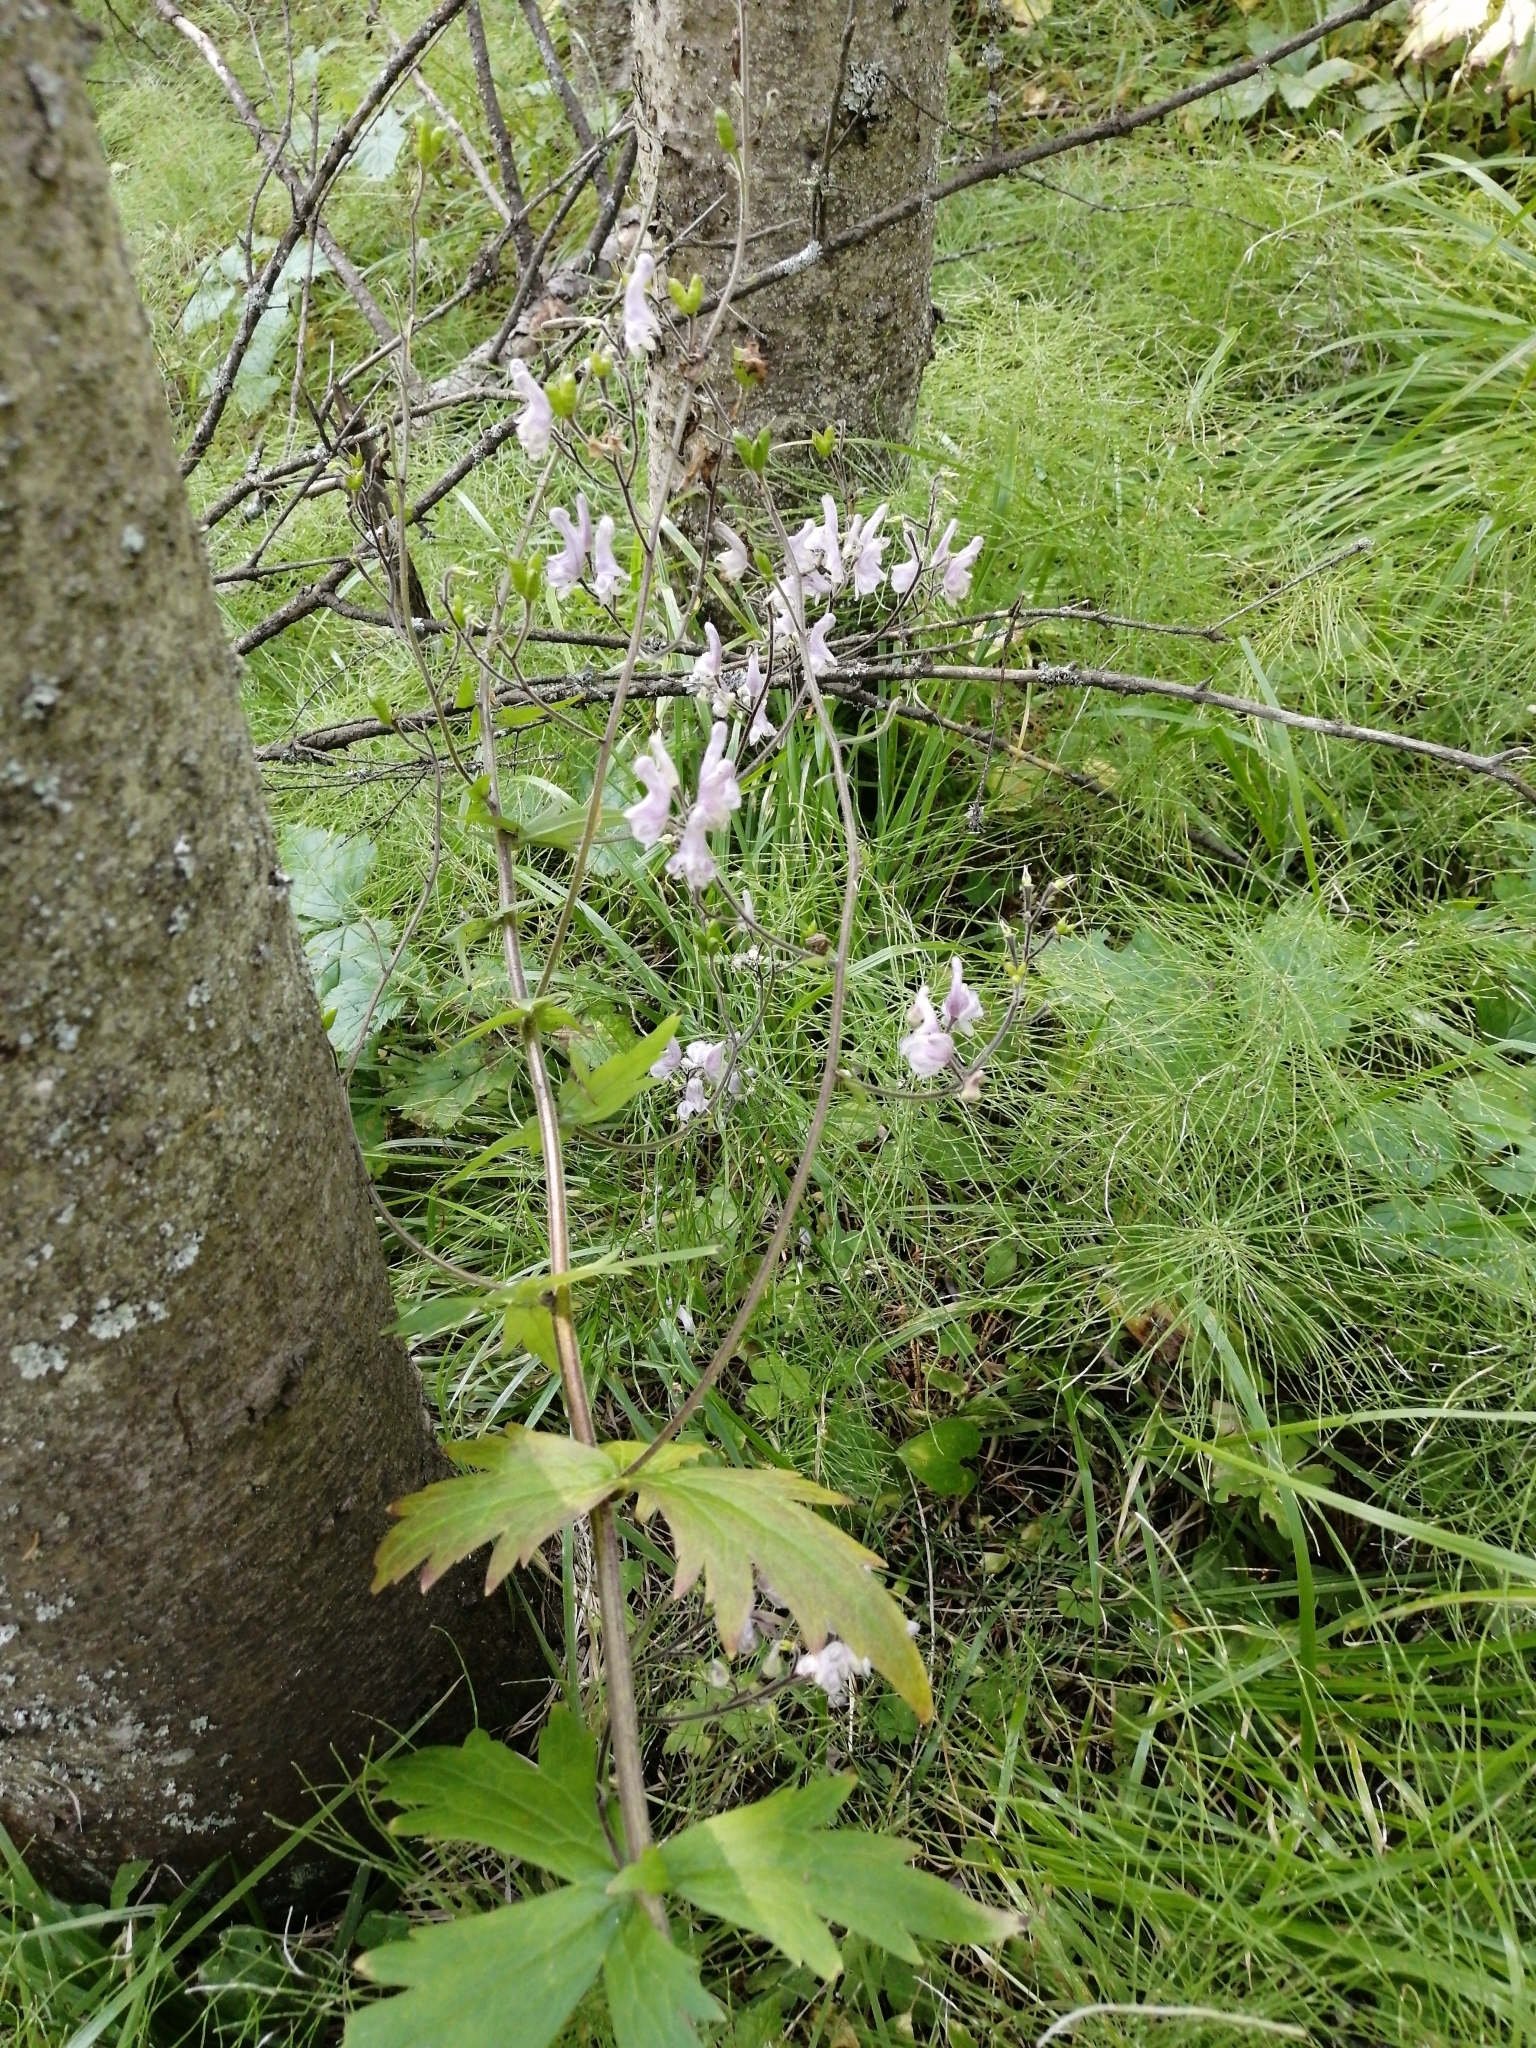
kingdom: Plantae
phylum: Tracheophyta
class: Magnoliopsida
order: Ranunculales
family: Ranunculaceae
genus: Aconitum
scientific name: Aconitum septentrionale
